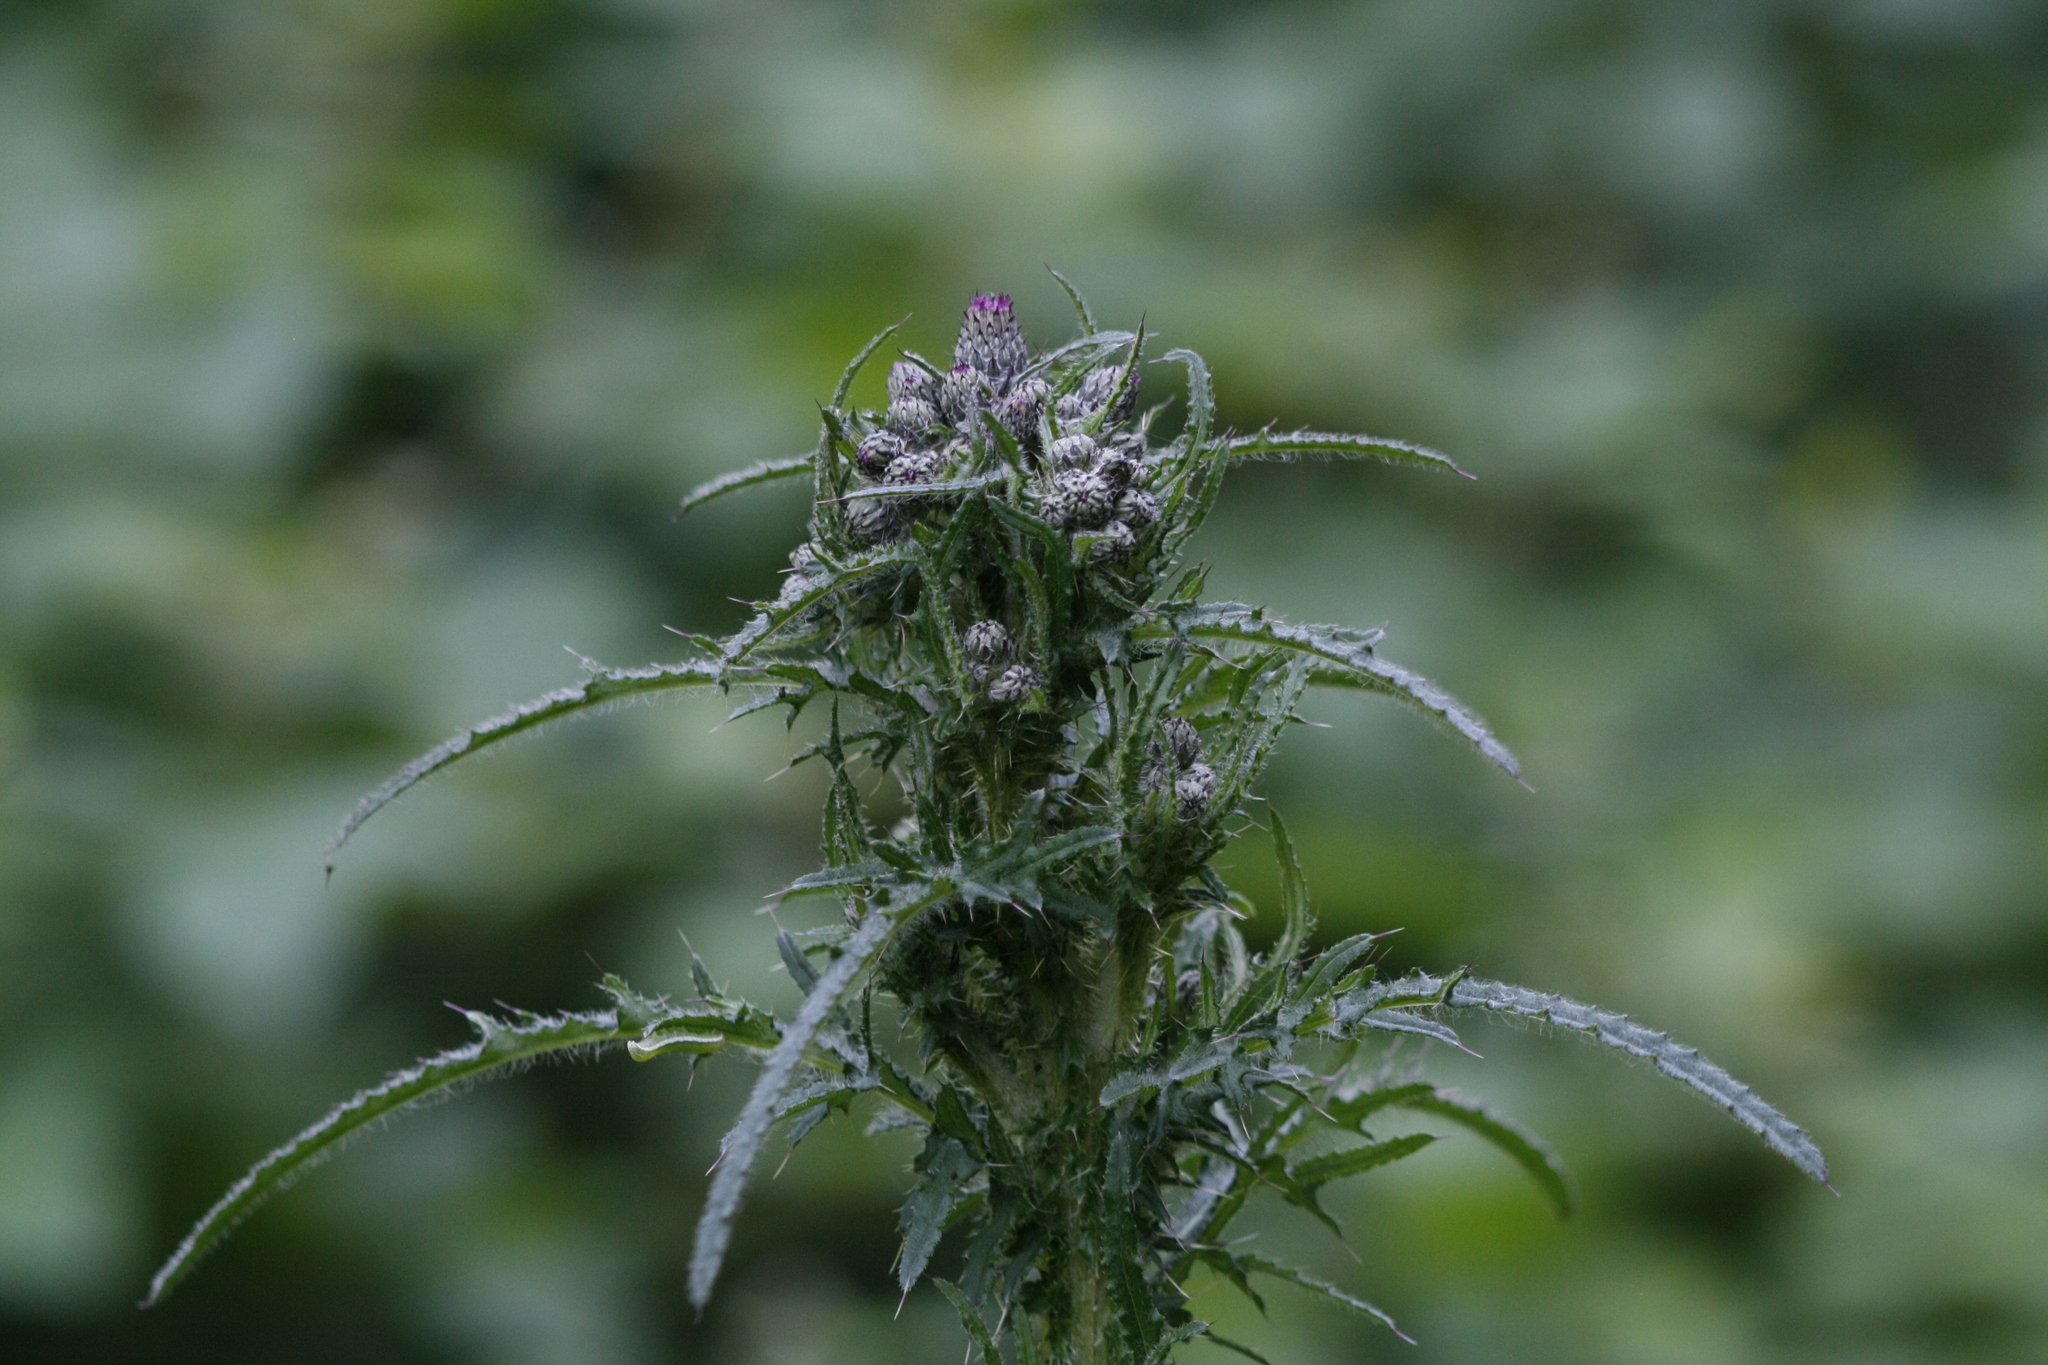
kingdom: Plantae
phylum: Tracheophyta
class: Magnoliopsida
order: Asterales
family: Asteraceae
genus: Cirsium
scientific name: Cirsium palustre
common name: Marsh thistle
